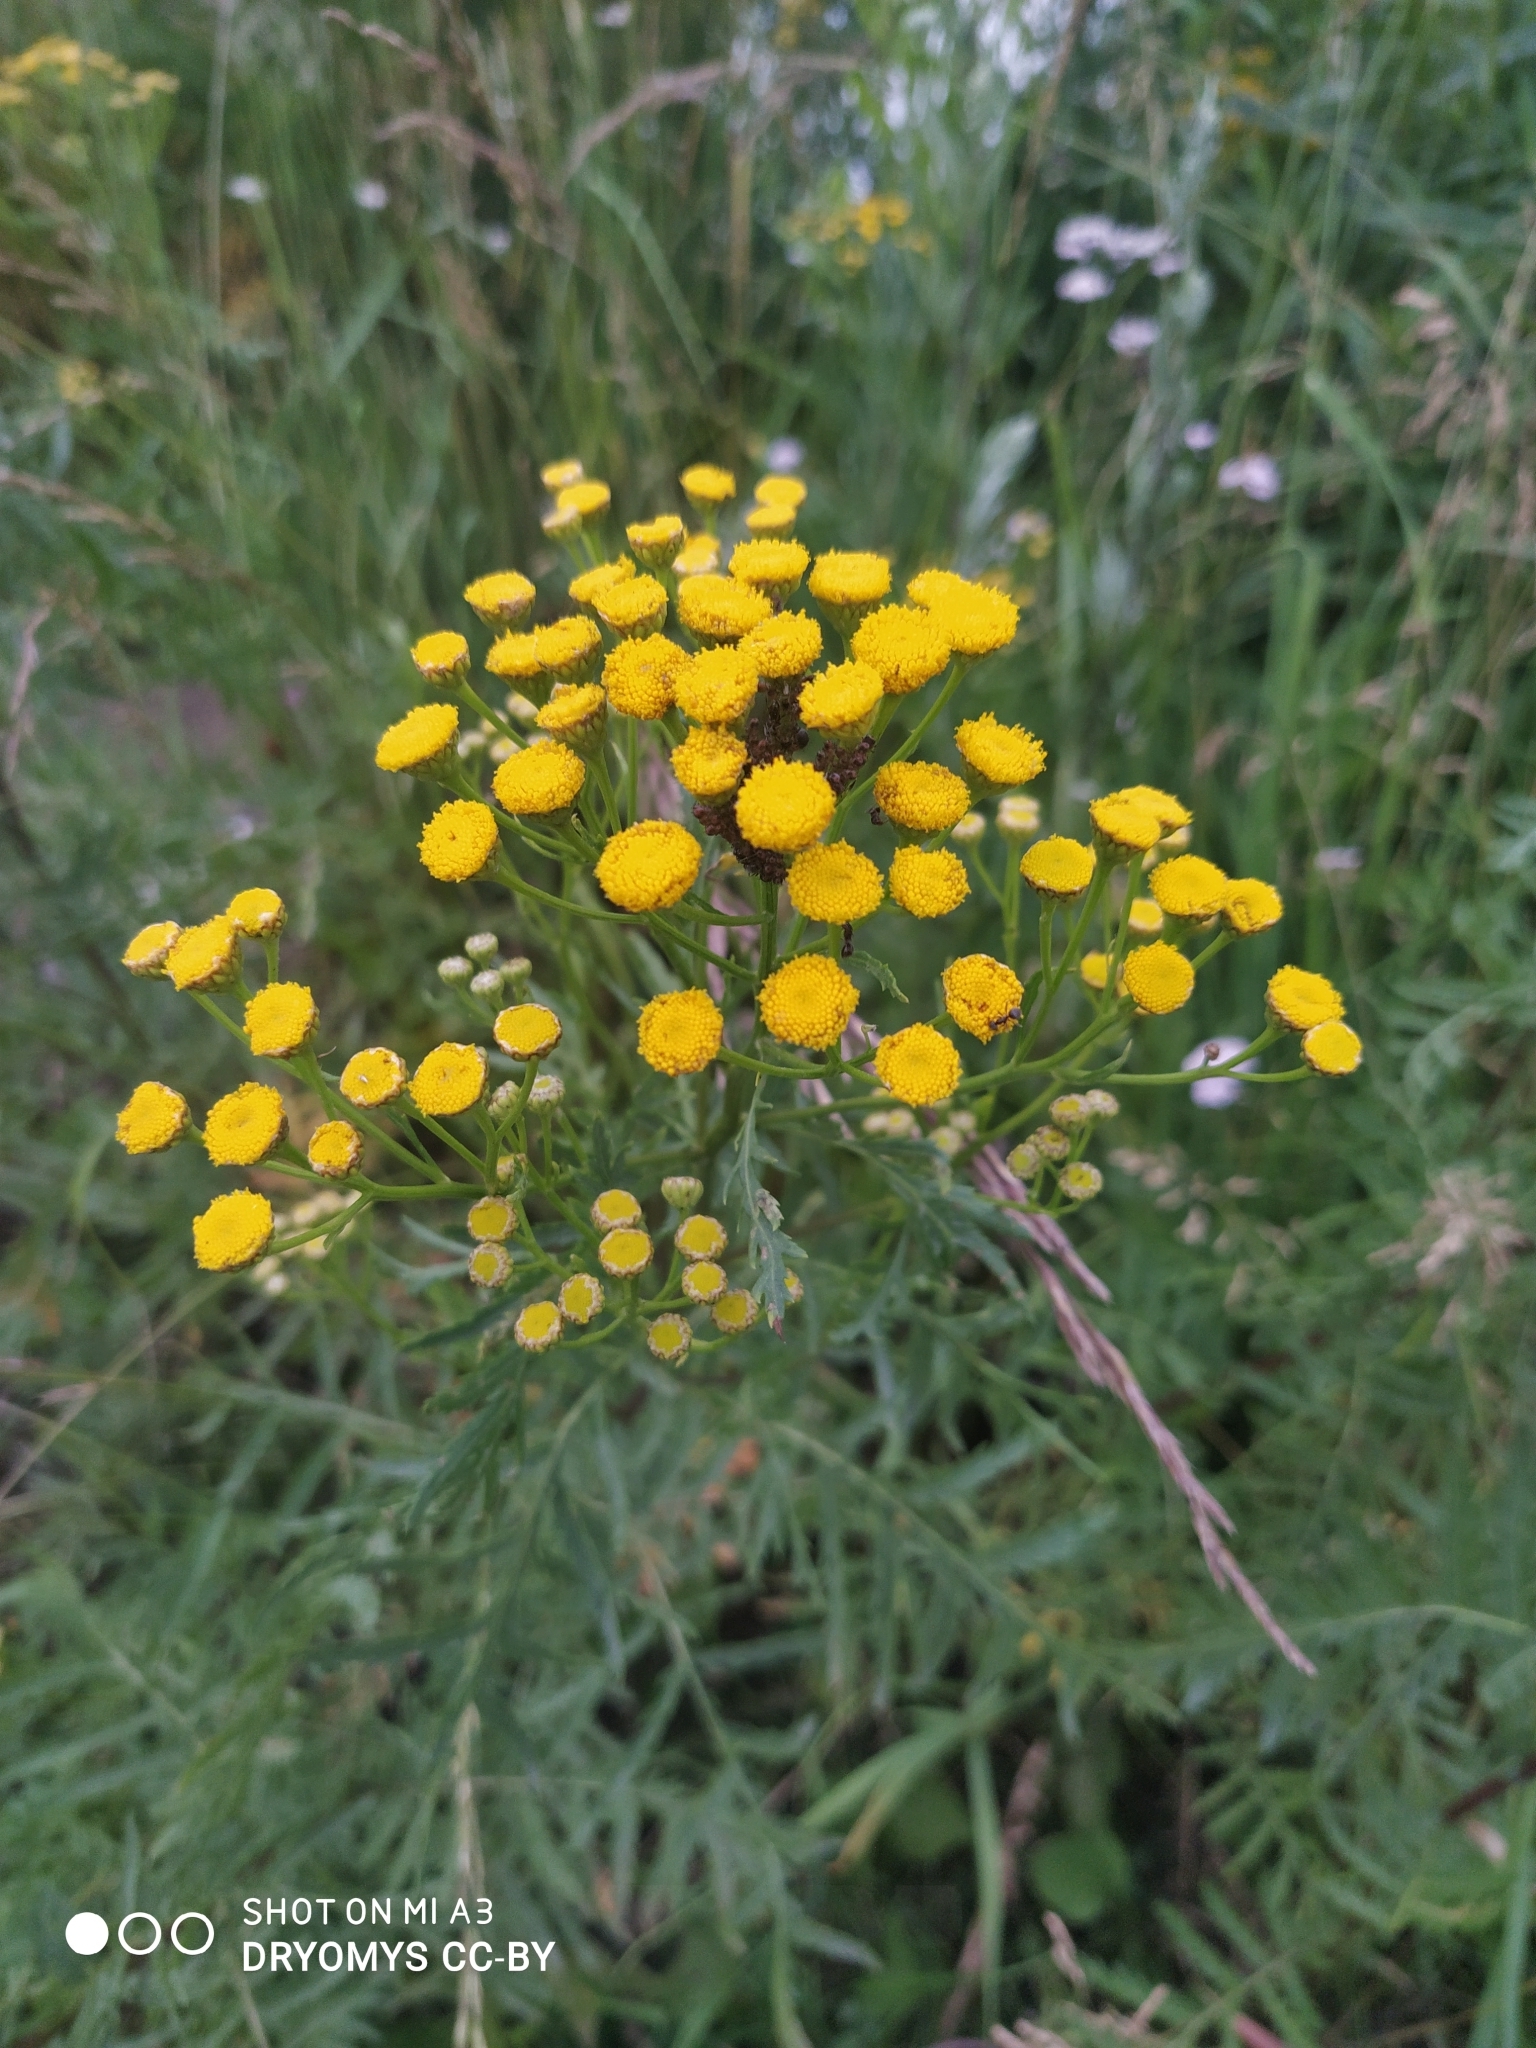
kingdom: Plantae
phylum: Tracheophyta
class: Magnoliopsida
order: Asterales
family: Asteraceae
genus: Tanacetum
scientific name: Tanacetum vulgare
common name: Common tansy
